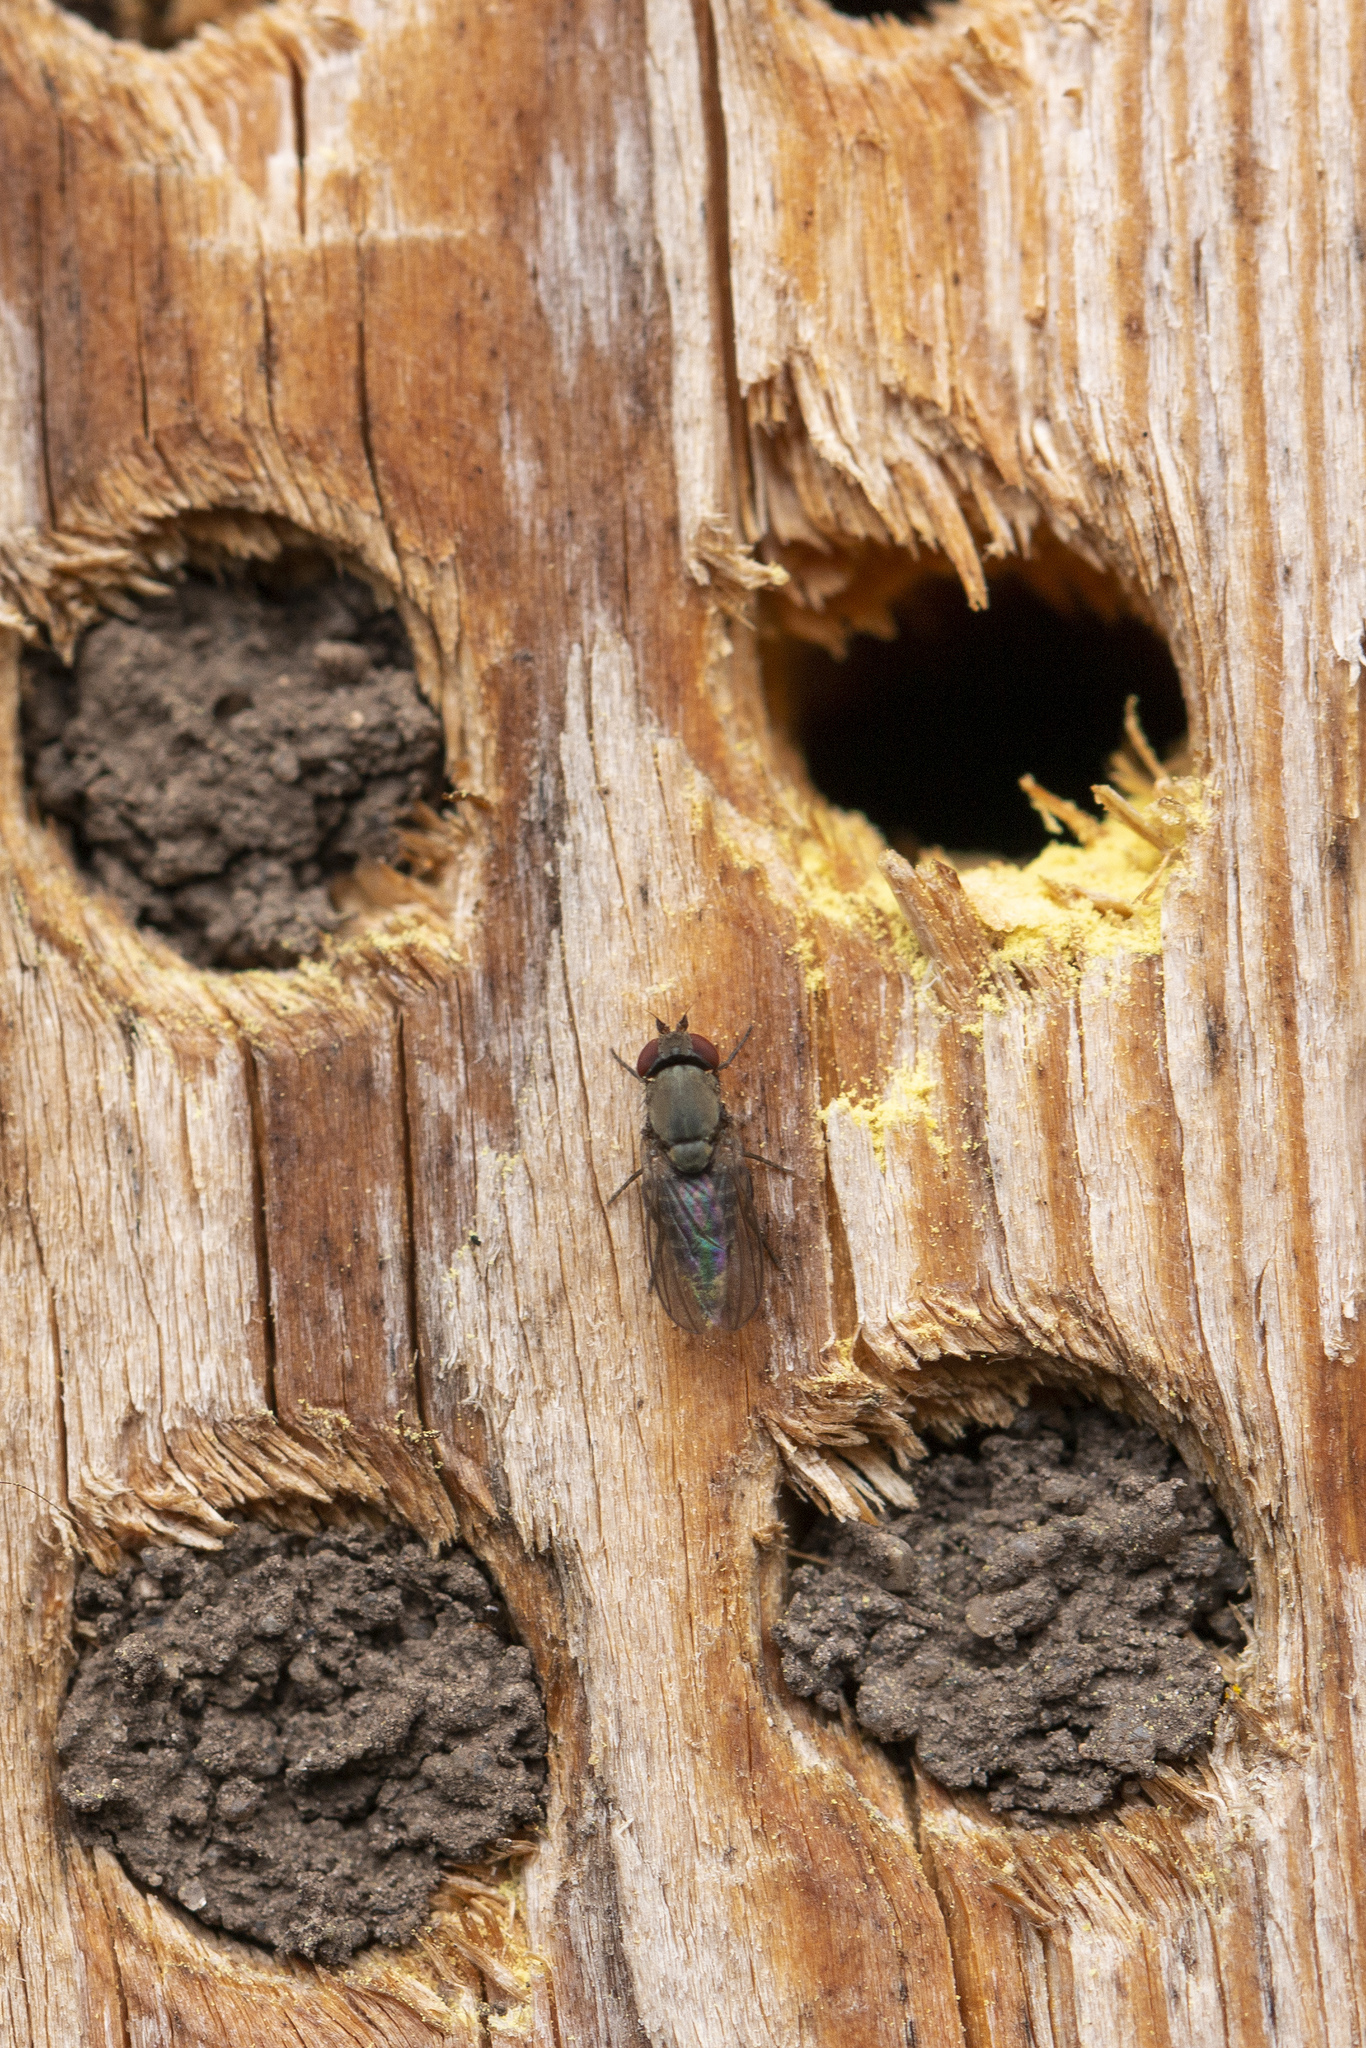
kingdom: Animalia
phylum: Arthropoda
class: Insecta
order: Diptera
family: Drosophilidae
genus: Cacoxenus
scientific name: Cacoxenus indagator
